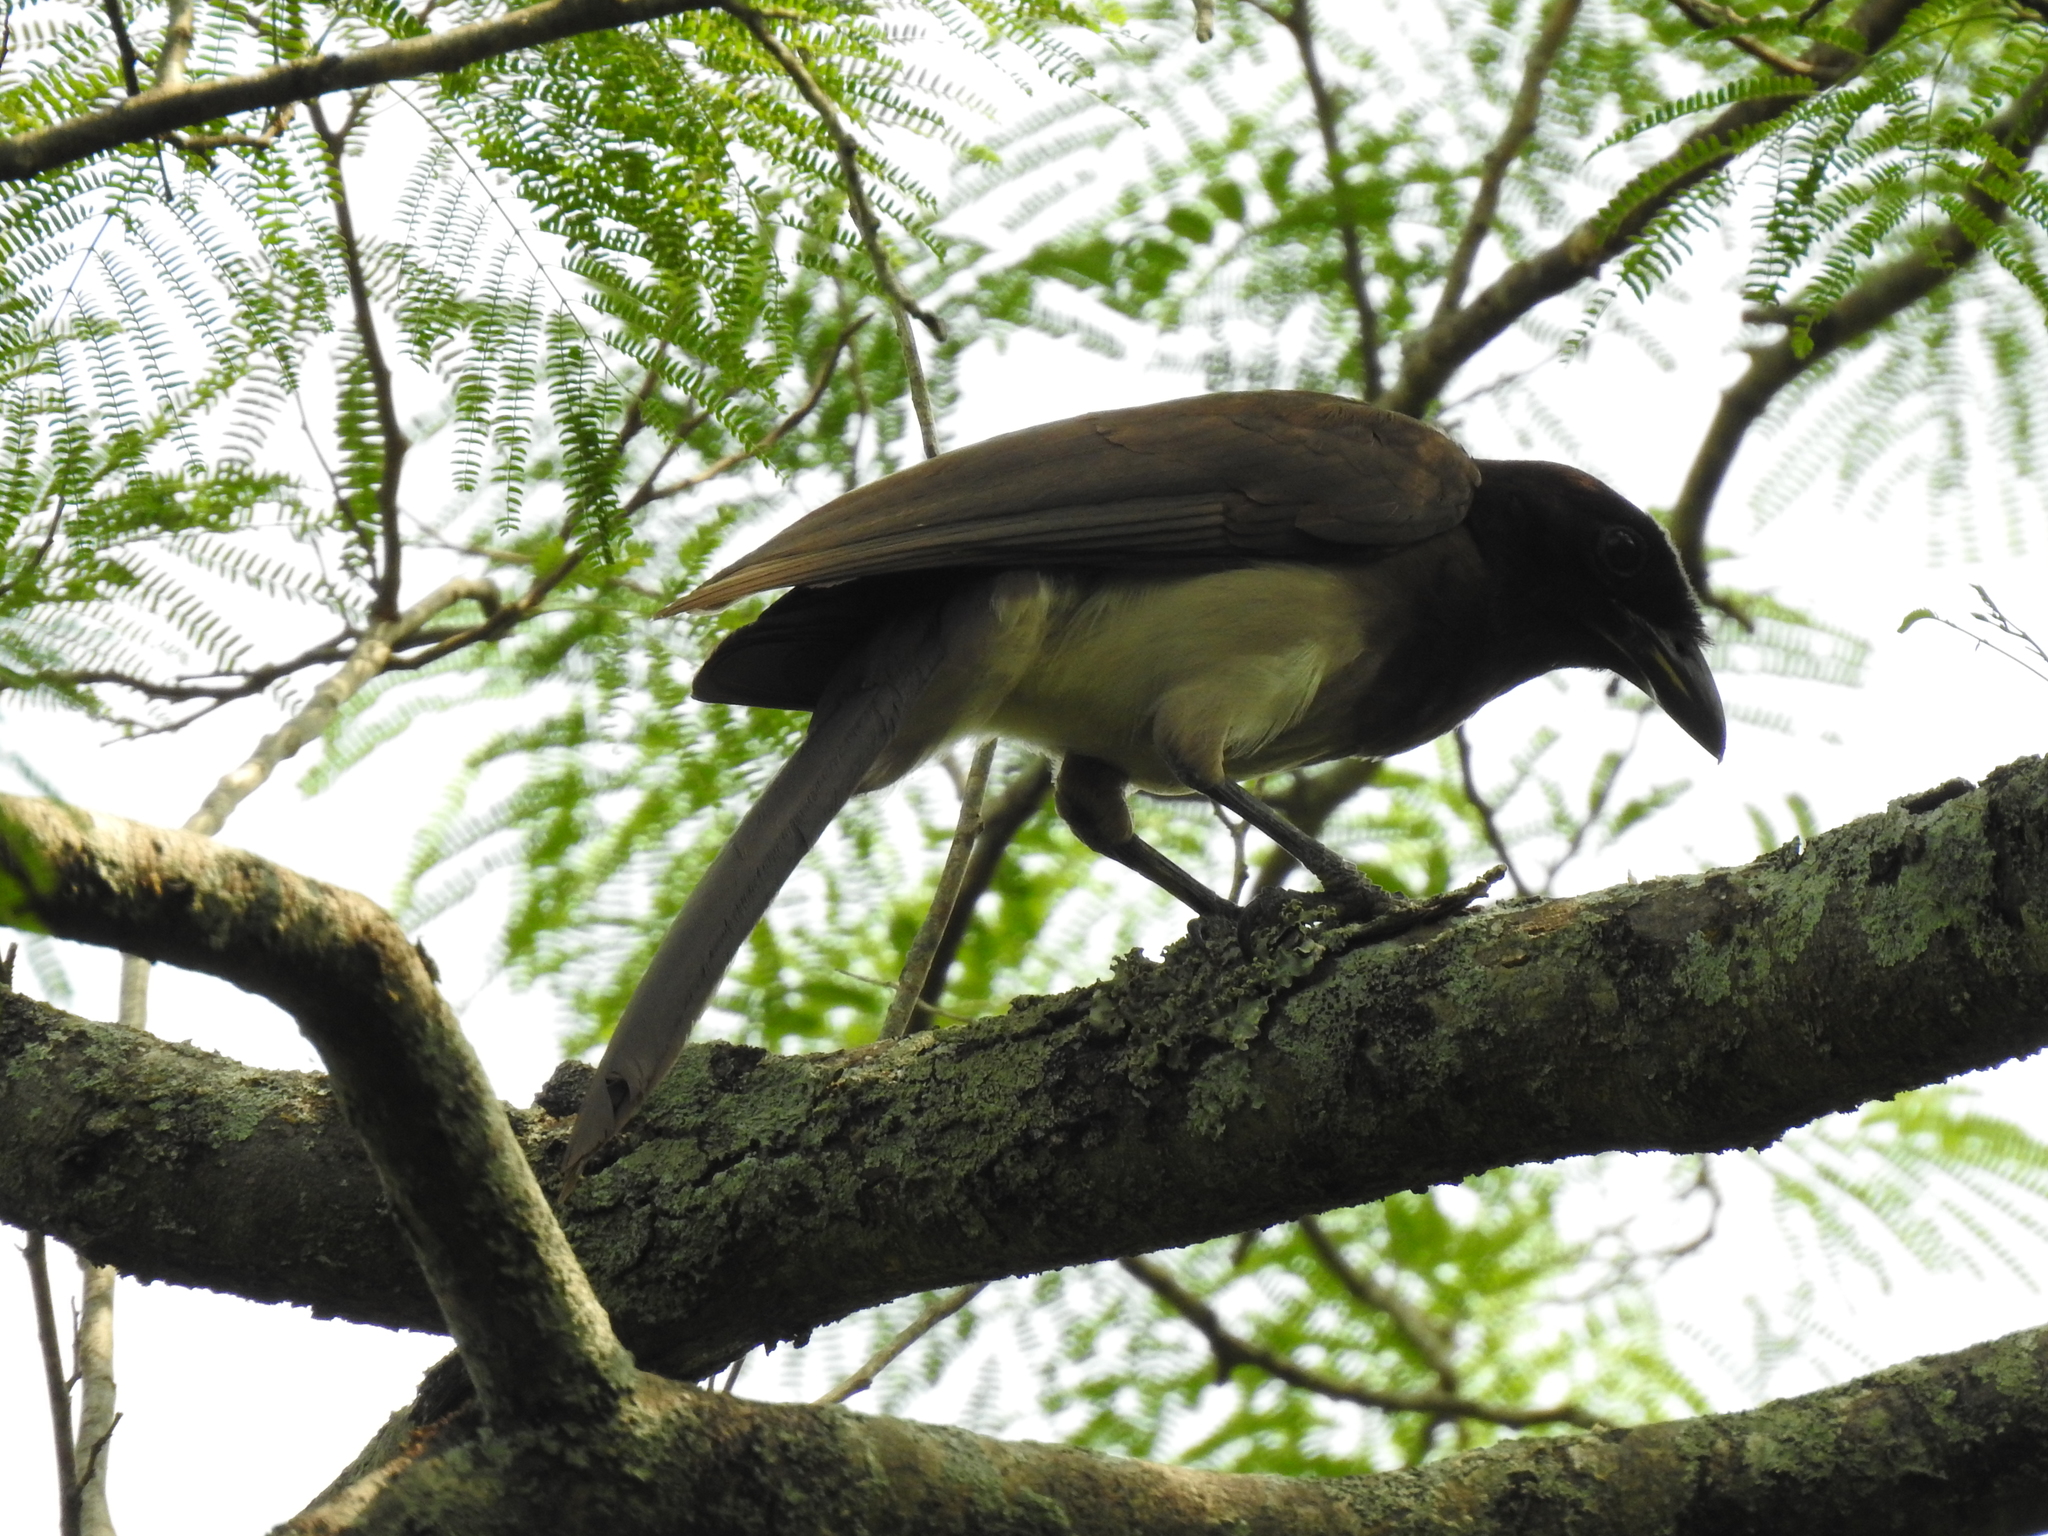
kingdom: Animalia
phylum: Chordata
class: Aves
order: Passeriformes
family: Corvidae
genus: Psilorhinus
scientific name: Psilorhinus morio
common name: Brown jay
